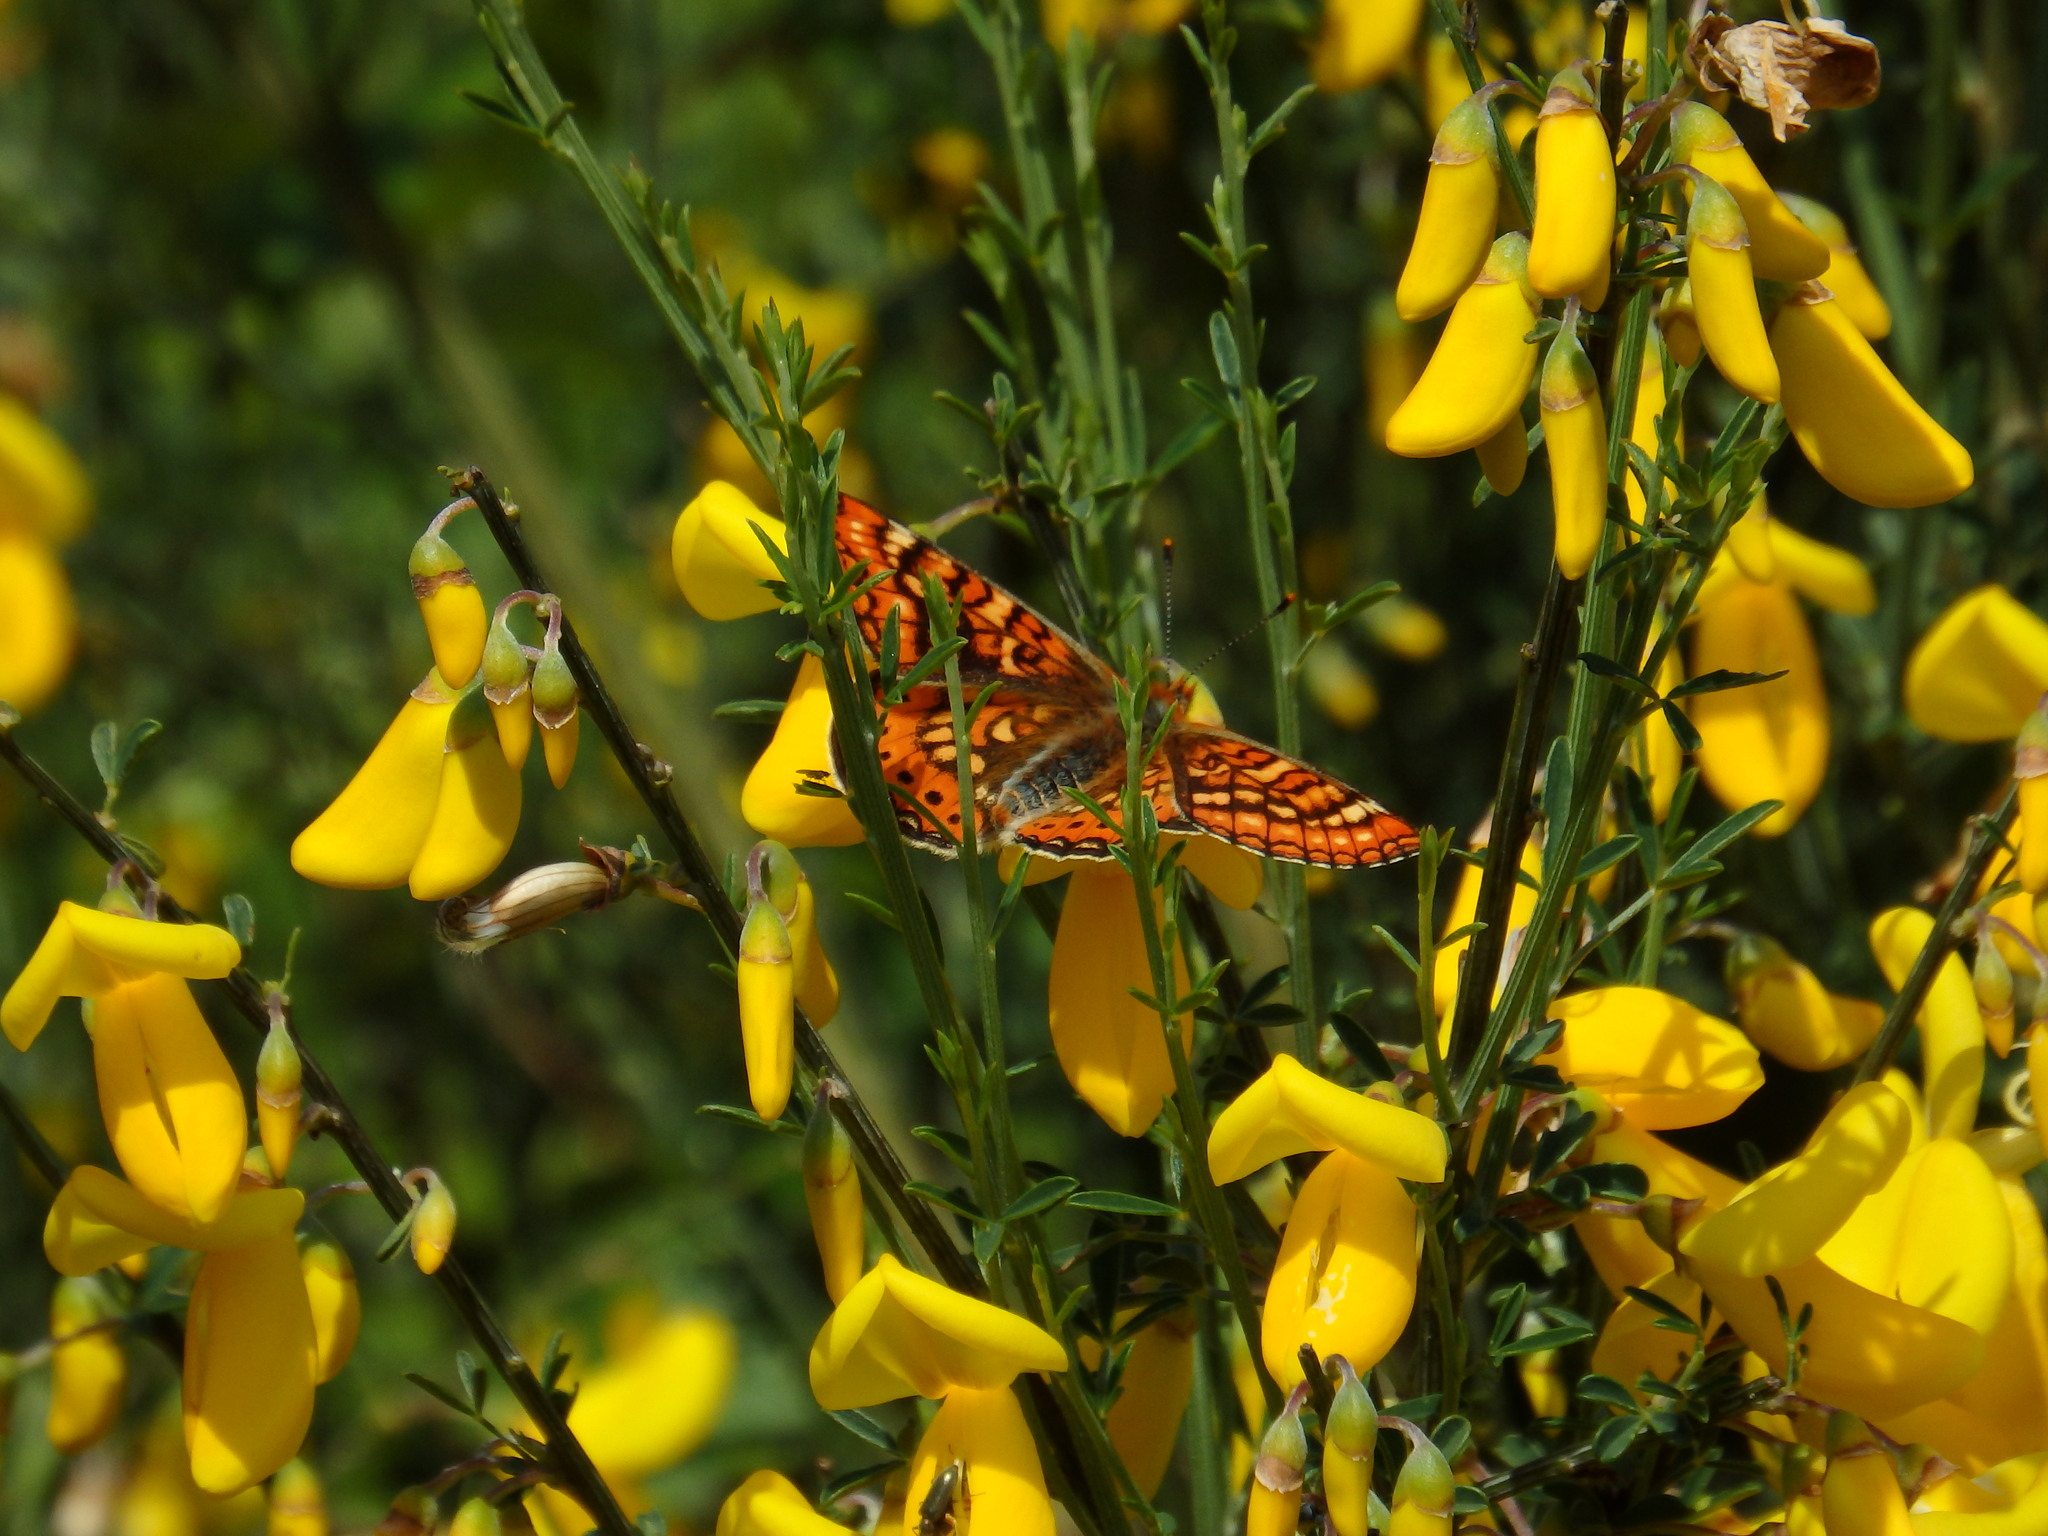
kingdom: Animalia
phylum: Arthropoda
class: Insecta
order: Lepidoptera
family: Nymphalidae
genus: Euphydryas
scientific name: Euphydryas aurinia
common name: Marsh fritillary
